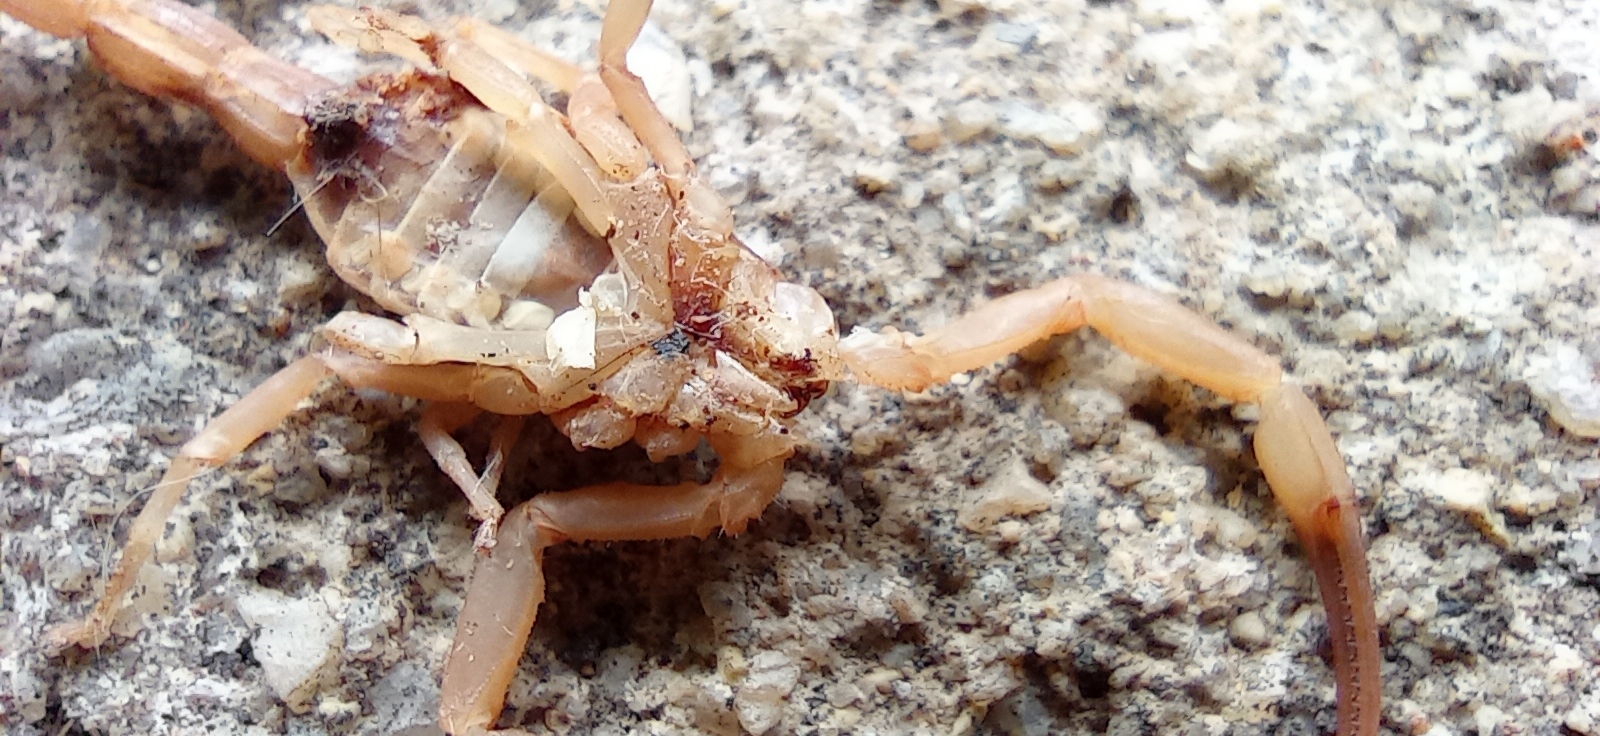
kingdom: Animalia
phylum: Arthropoda
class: Arachnida
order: Scorpiones
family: Buthidae
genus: Tityus
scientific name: Tityus stigmurus
